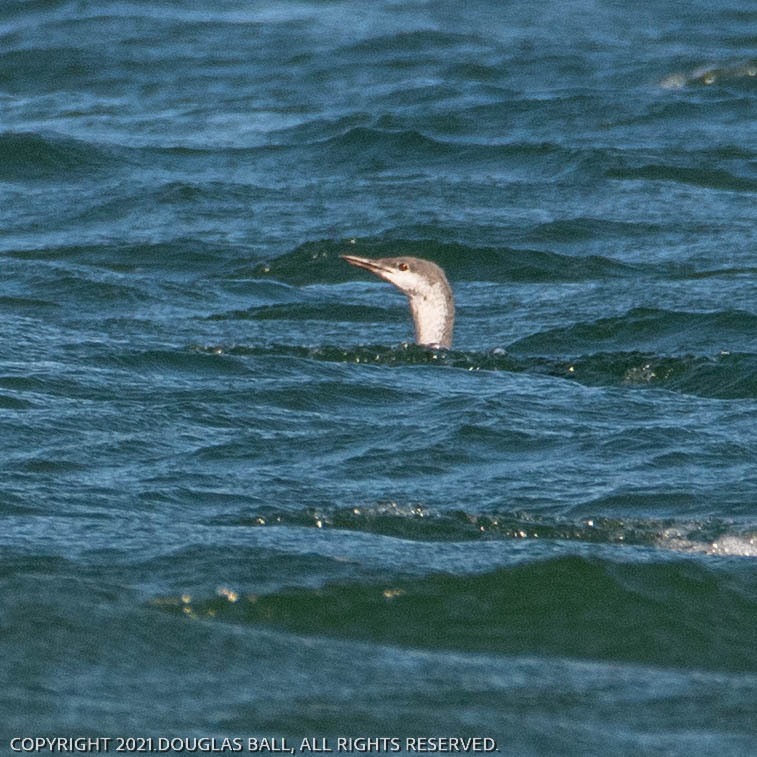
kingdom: Animalia
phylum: Chordata
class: Aves
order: Gaviiformes
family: Gaviidae
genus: Gavia
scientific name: Gavia stellata
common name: Red-throated loon
